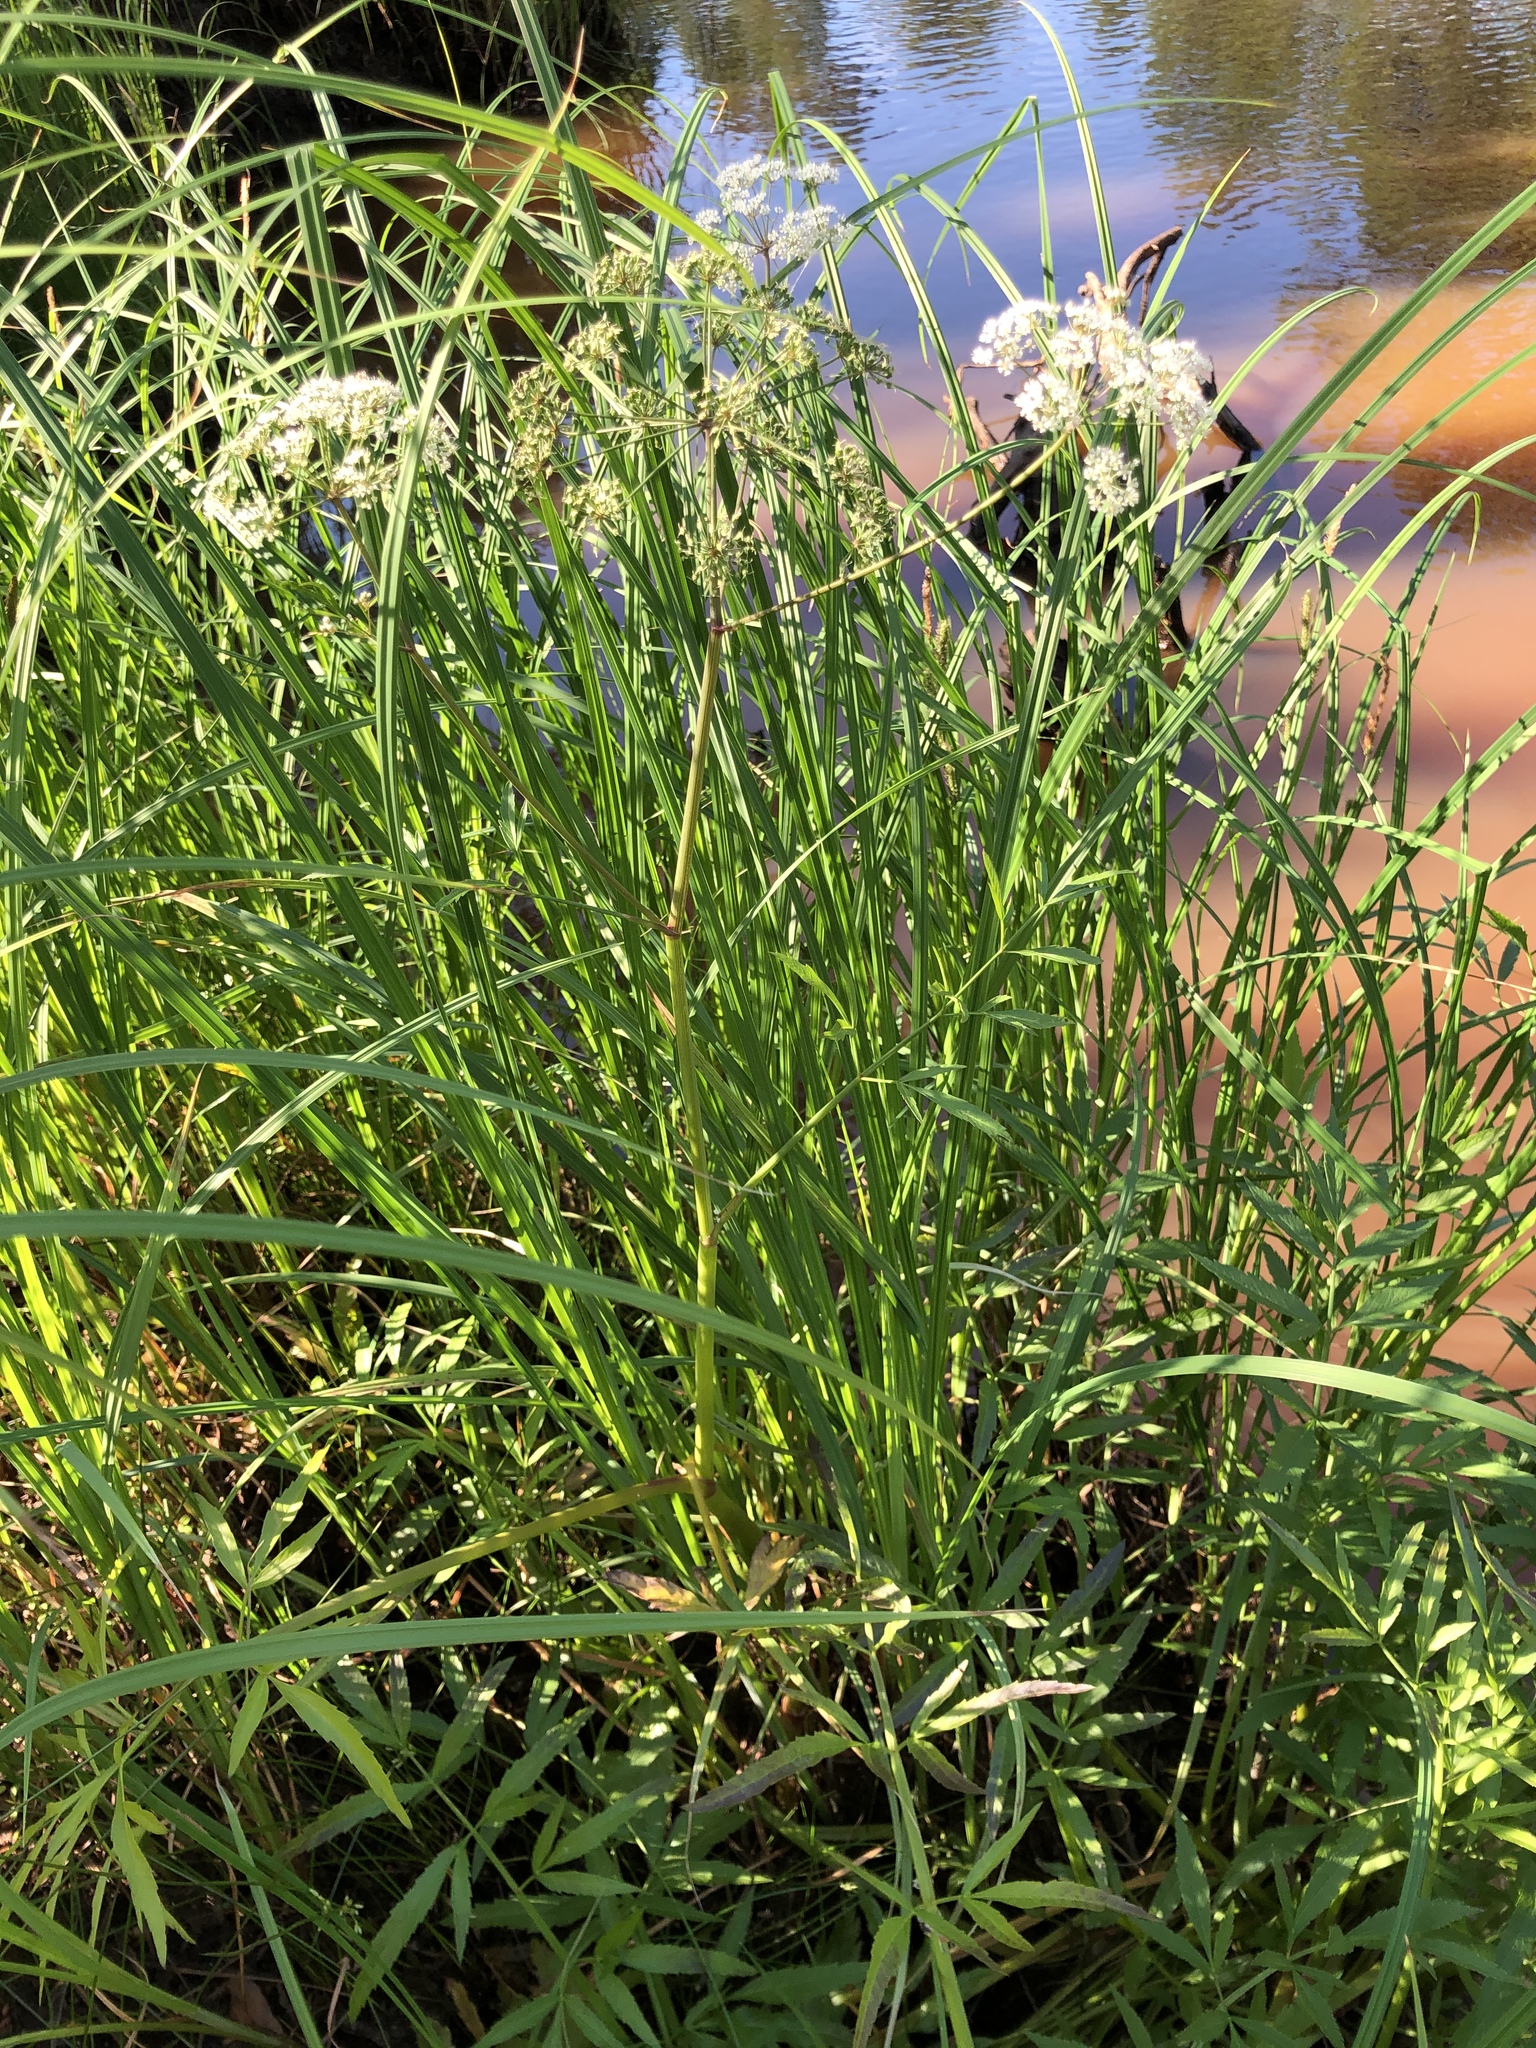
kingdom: Plantae
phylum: Tracheophyta
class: Magnoliopsida
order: Apiales
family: Apiaceae
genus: Cicuta
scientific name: Cicuta virosa
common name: Cowbane
